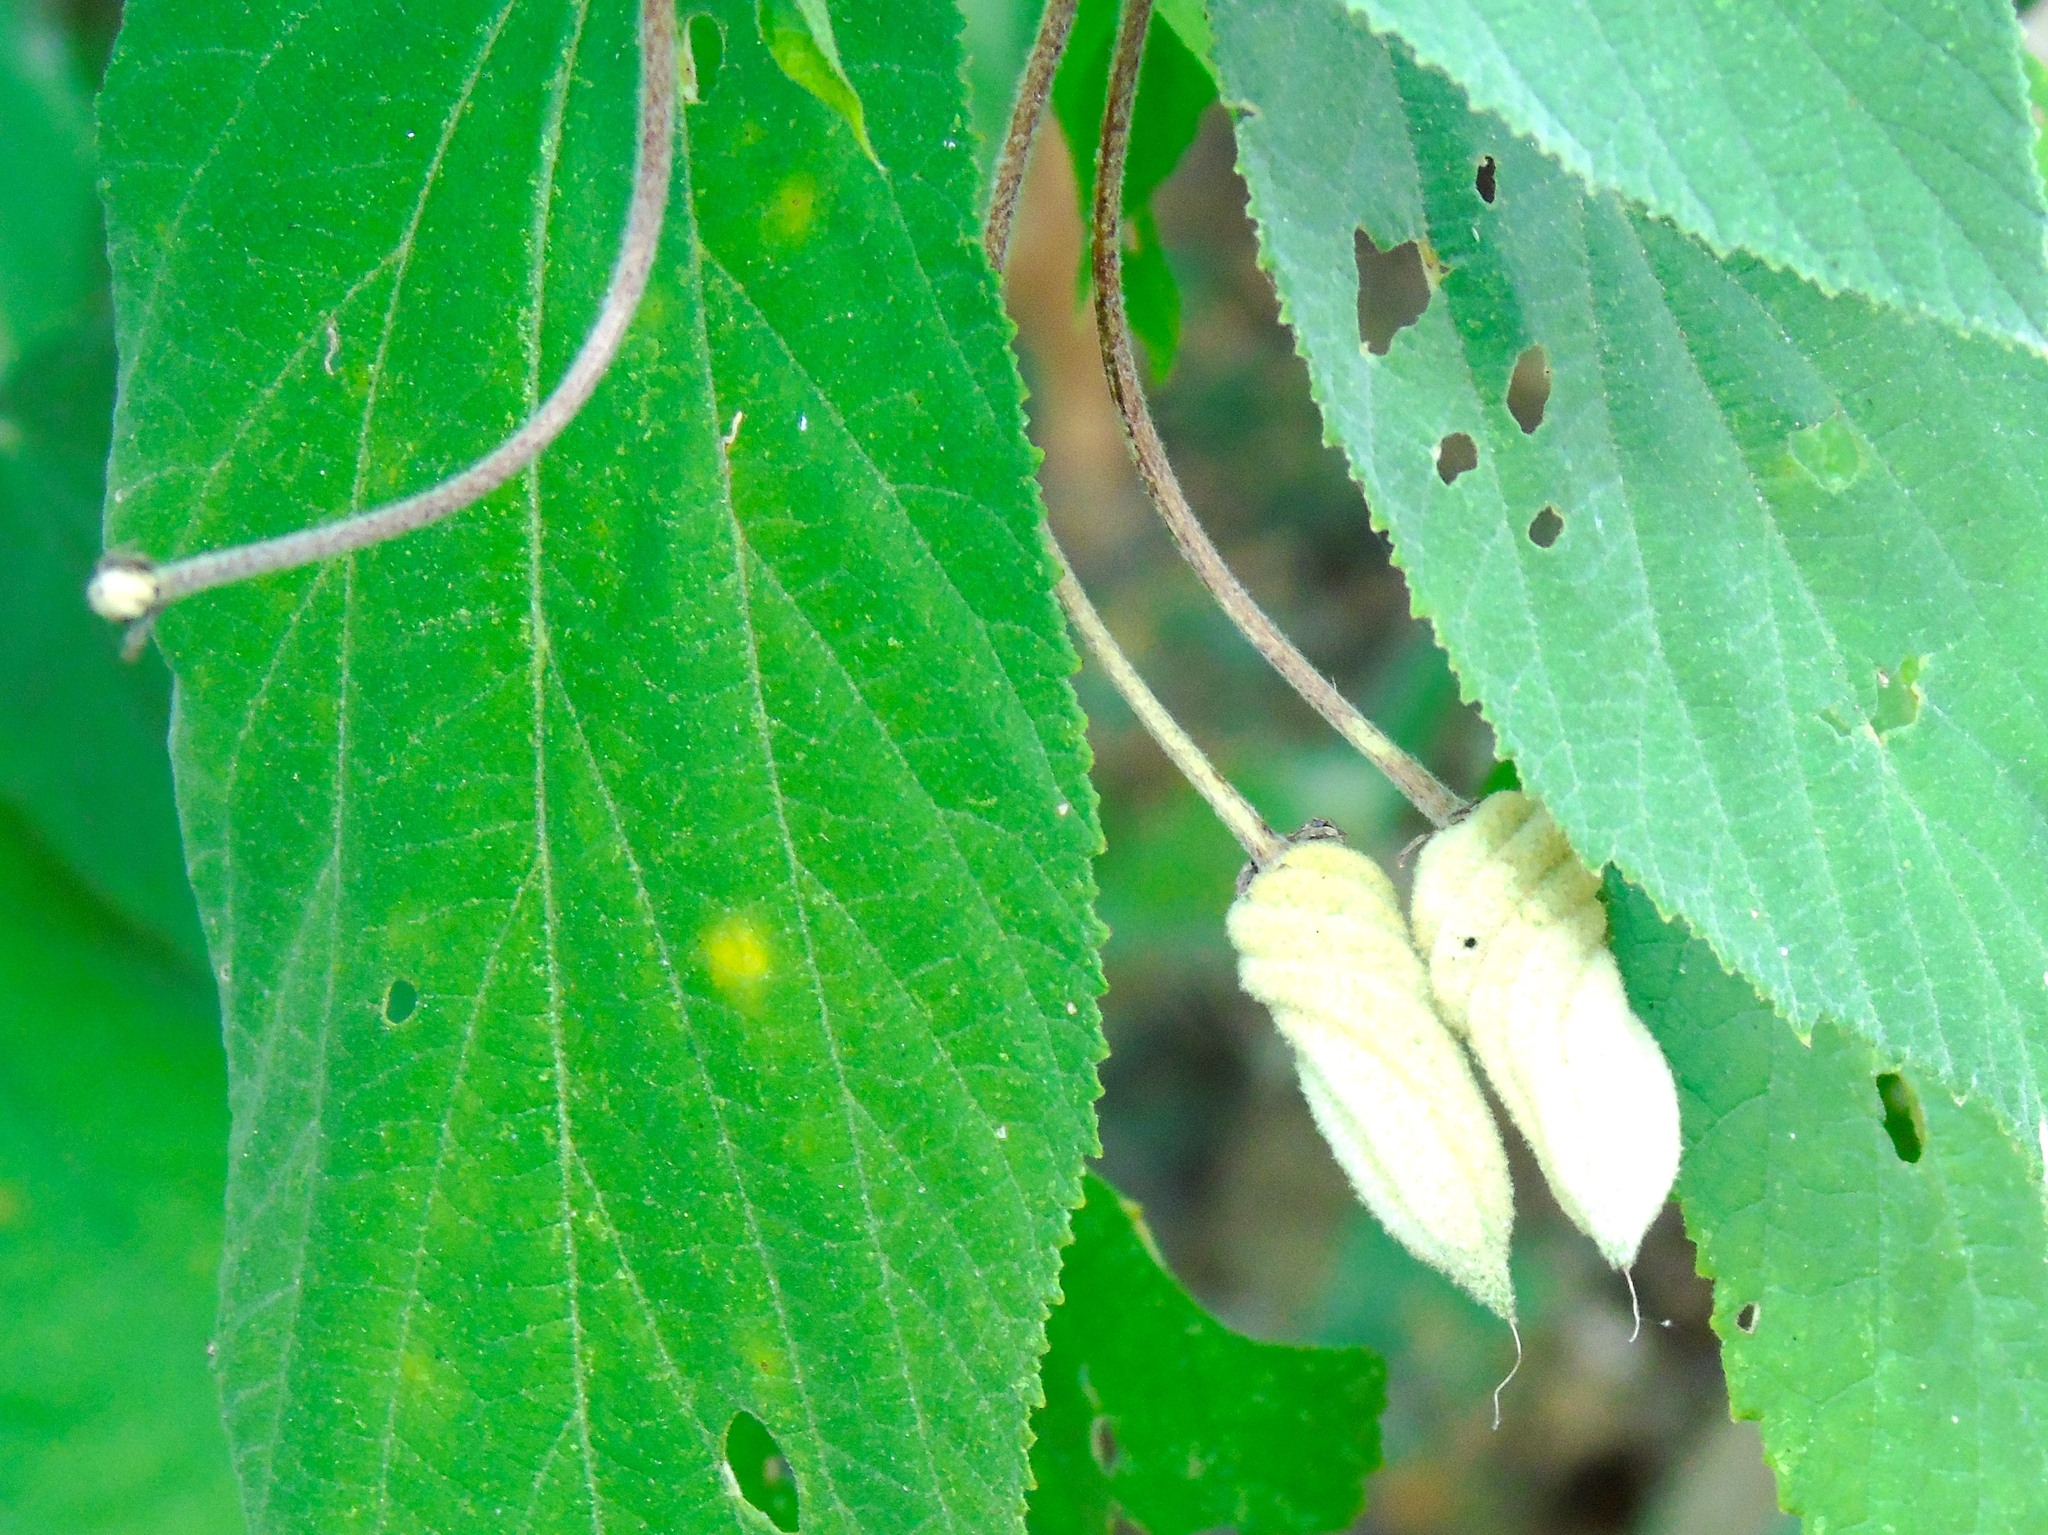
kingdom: Plantae
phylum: Tracheophyta
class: Magnoliopsida
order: Malvales
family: Malvaceae
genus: Helicteres
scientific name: Helicteres baruensis
